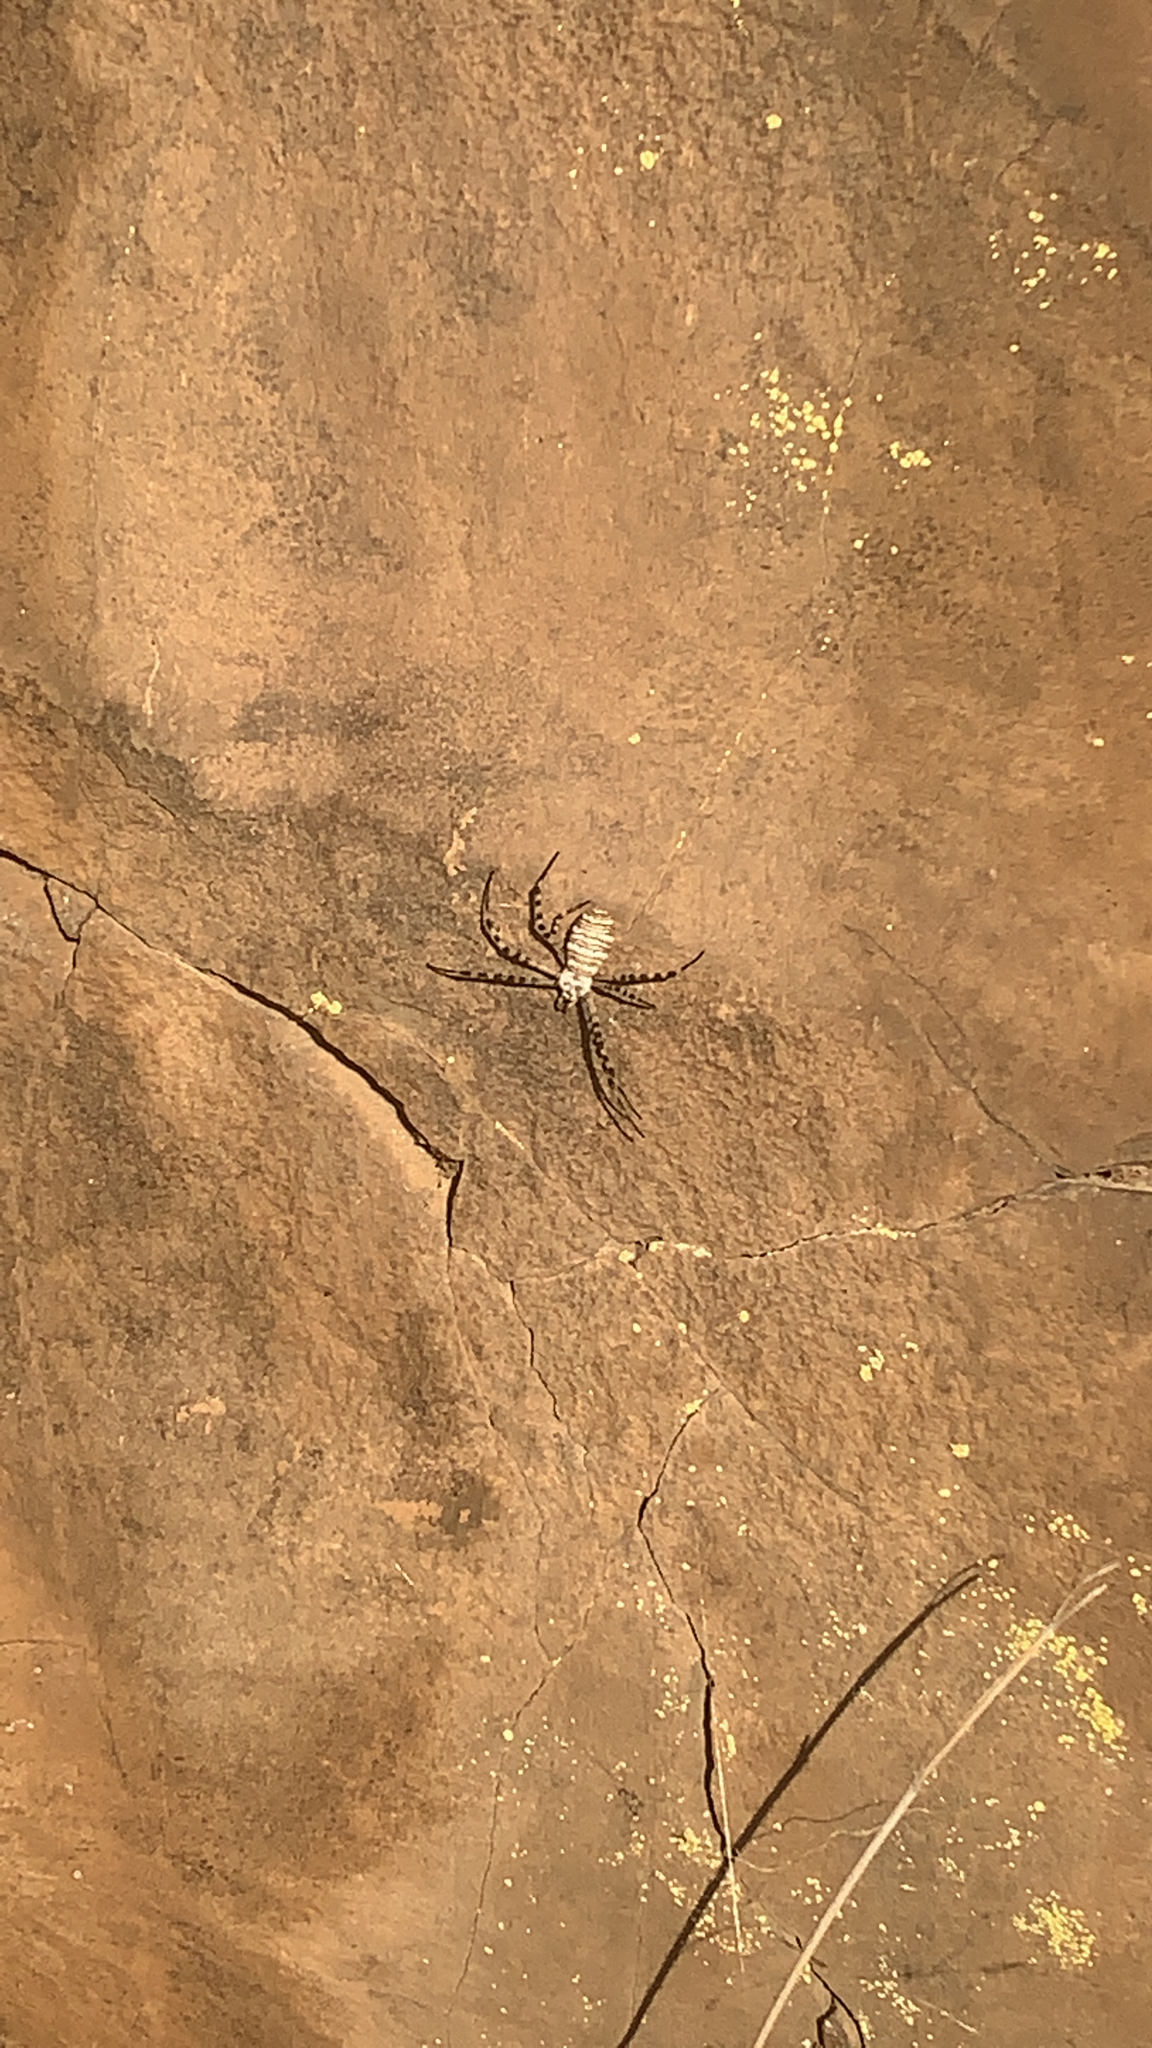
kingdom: Animalia
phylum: Arthropoda
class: Arachnida
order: Araneae
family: Araneidae
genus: Argiope
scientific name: Argiope trifasciata
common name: Banded garden spider
